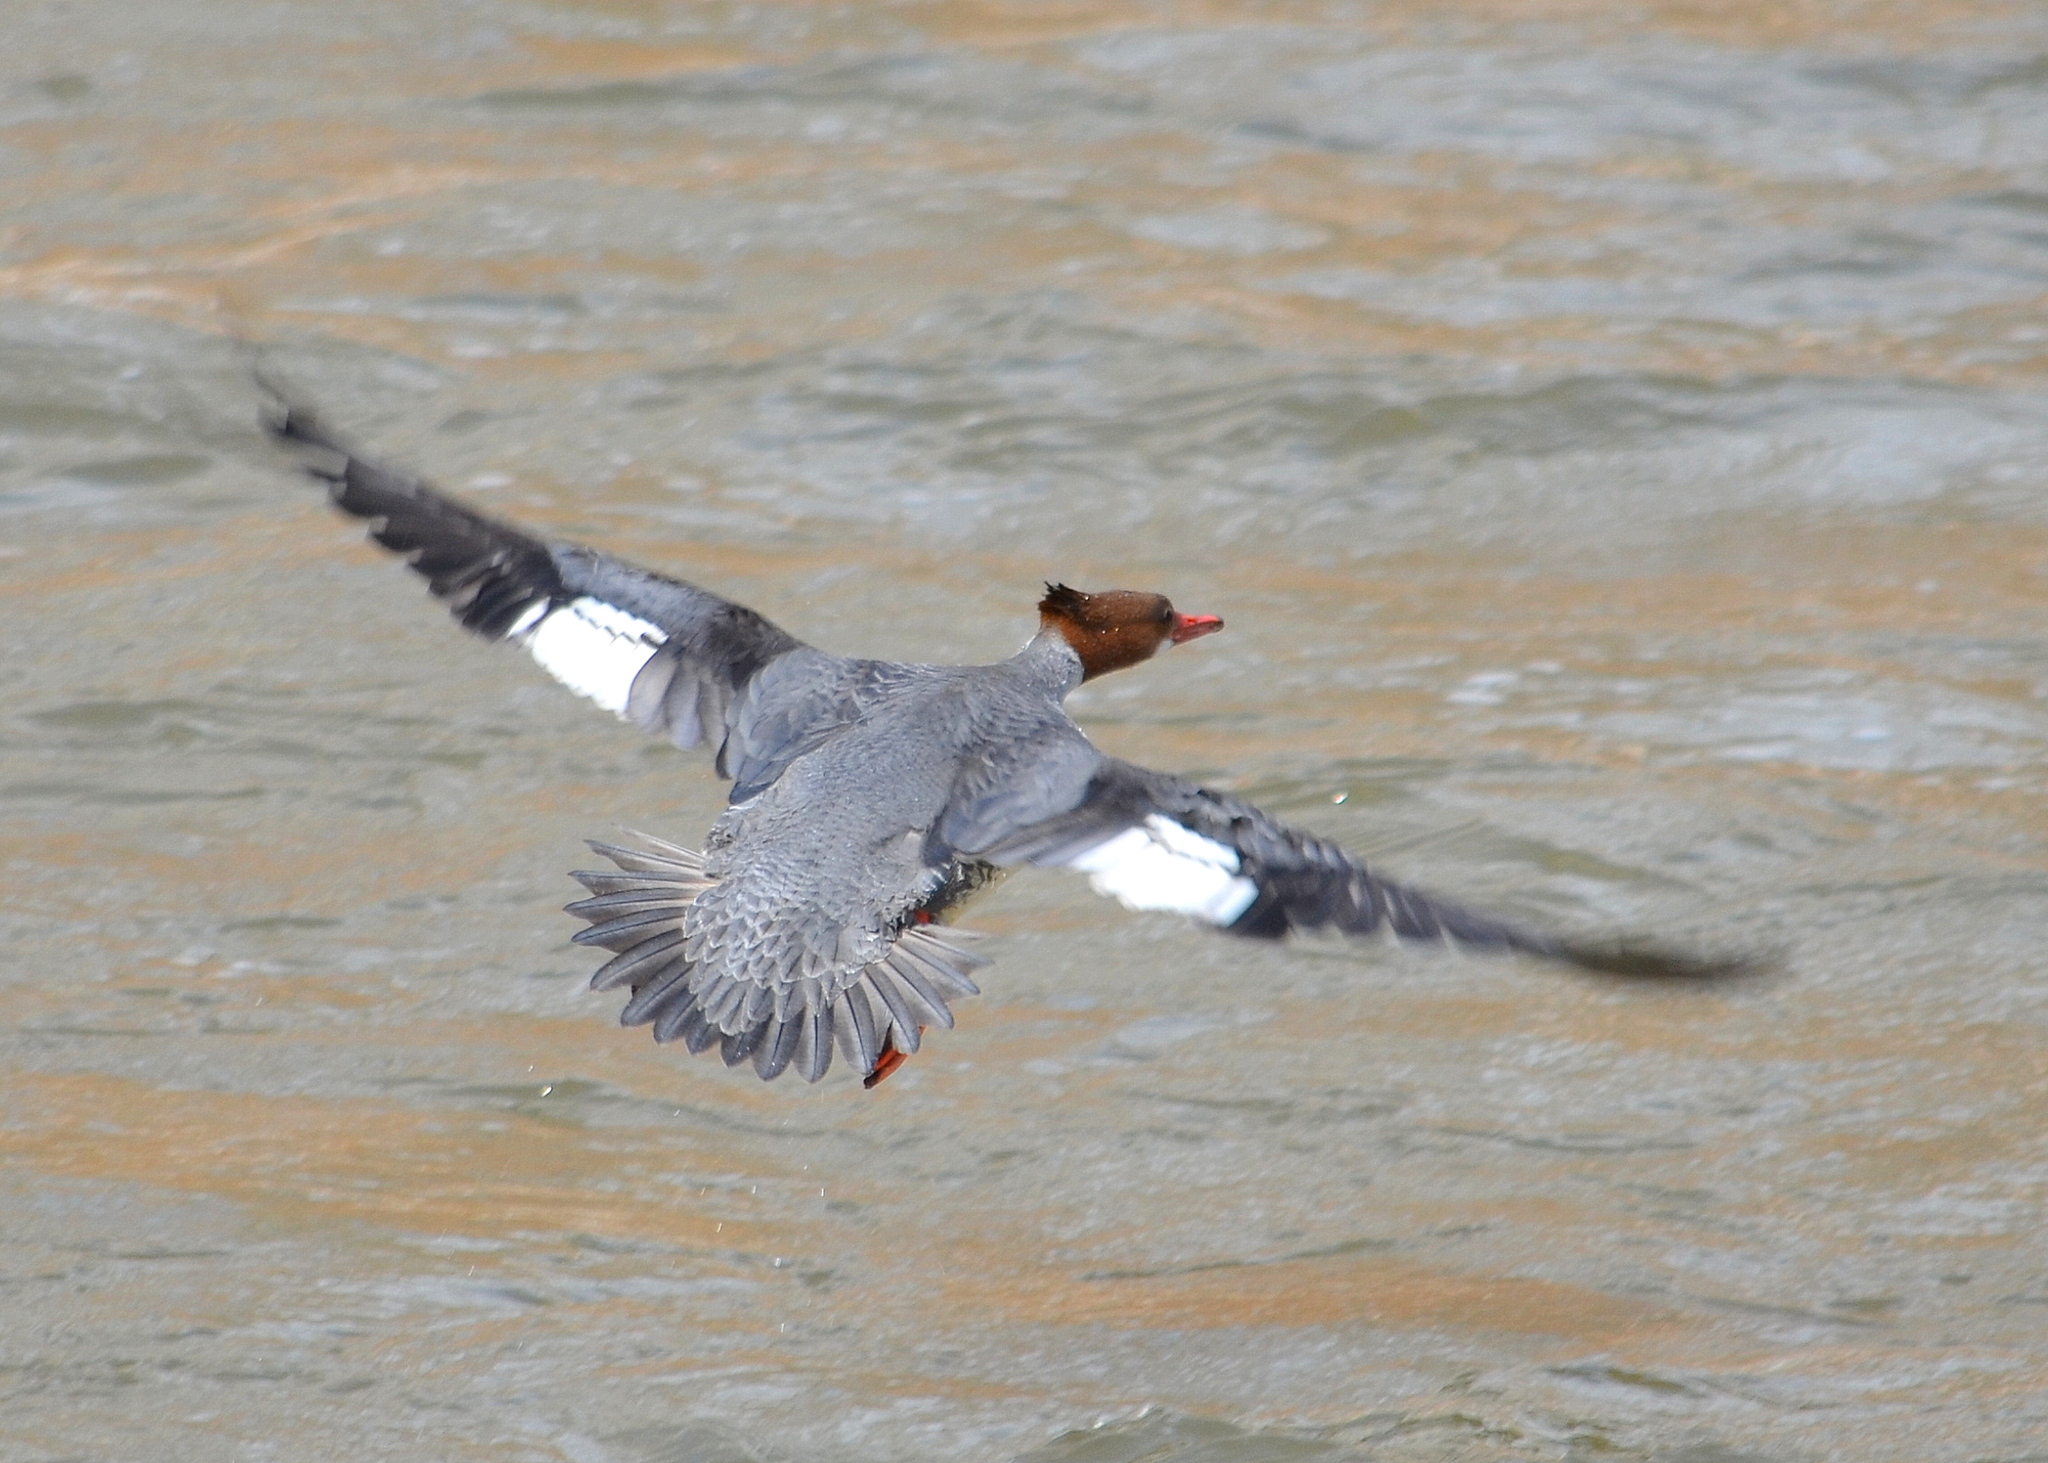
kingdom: Animalia
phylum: Chordata
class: Aves
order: Anseriformes
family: Anatidae
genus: Mergus
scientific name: Mergus merganser
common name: Common merganser
